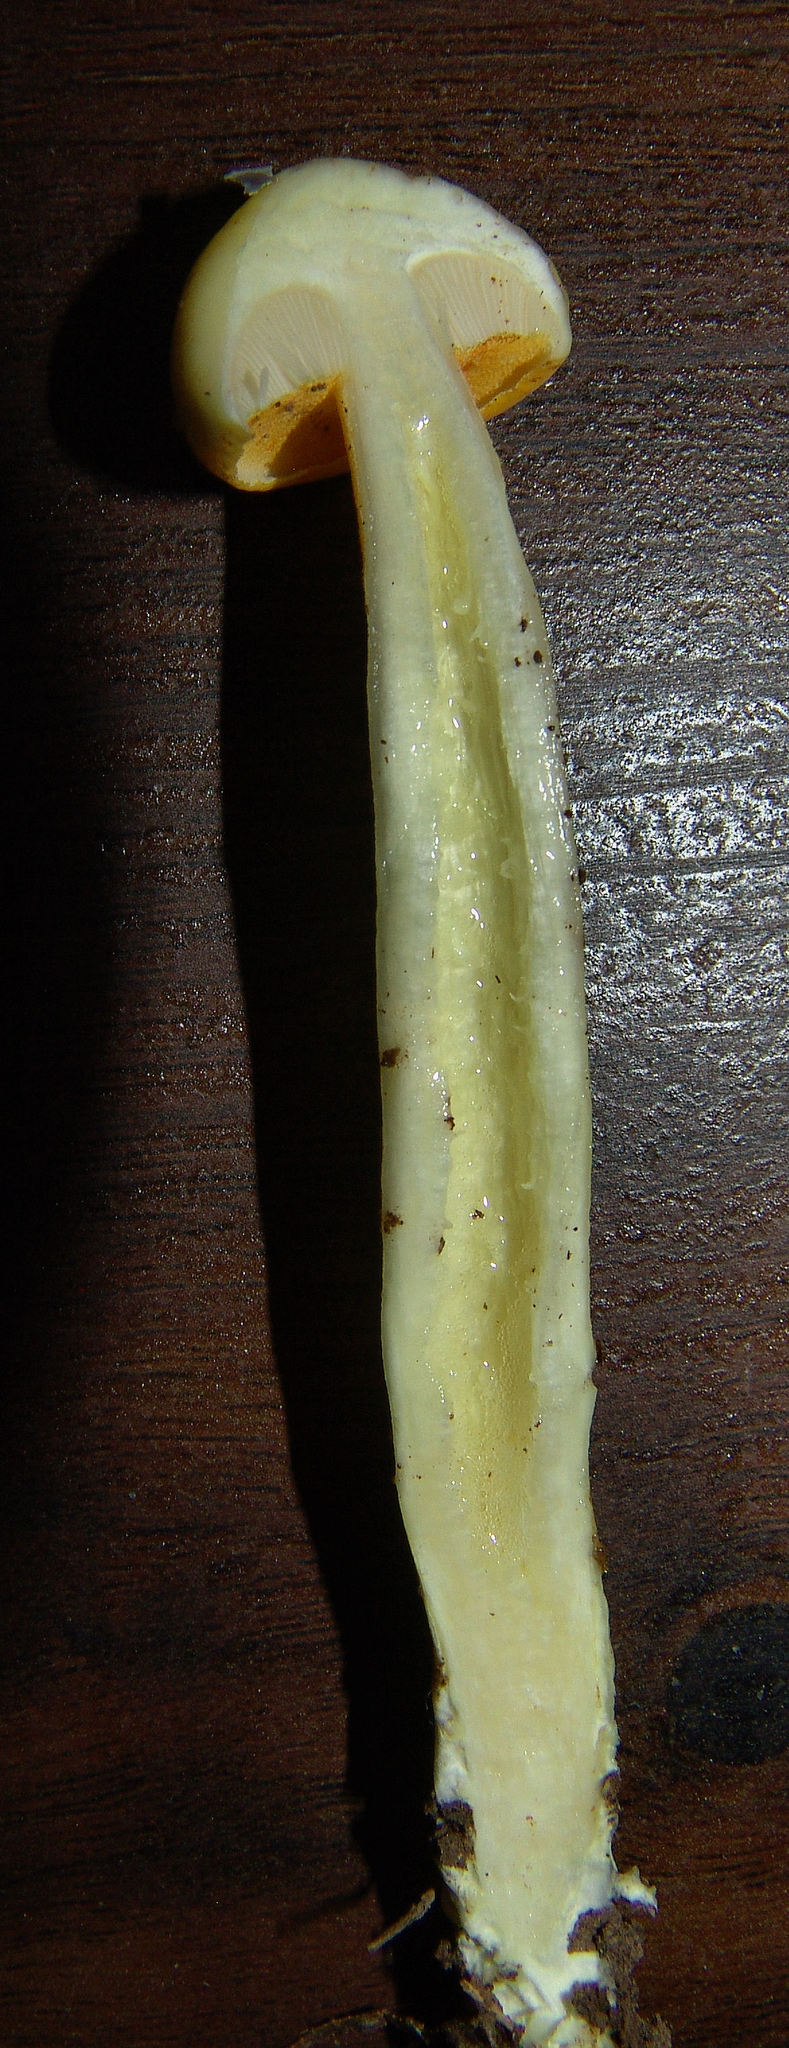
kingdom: Fungi
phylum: Basidiomycota
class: Agaricomycetes
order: Boletales
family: Boletaceae
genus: Pulveroboletus
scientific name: Pulveroboletus curtisii
